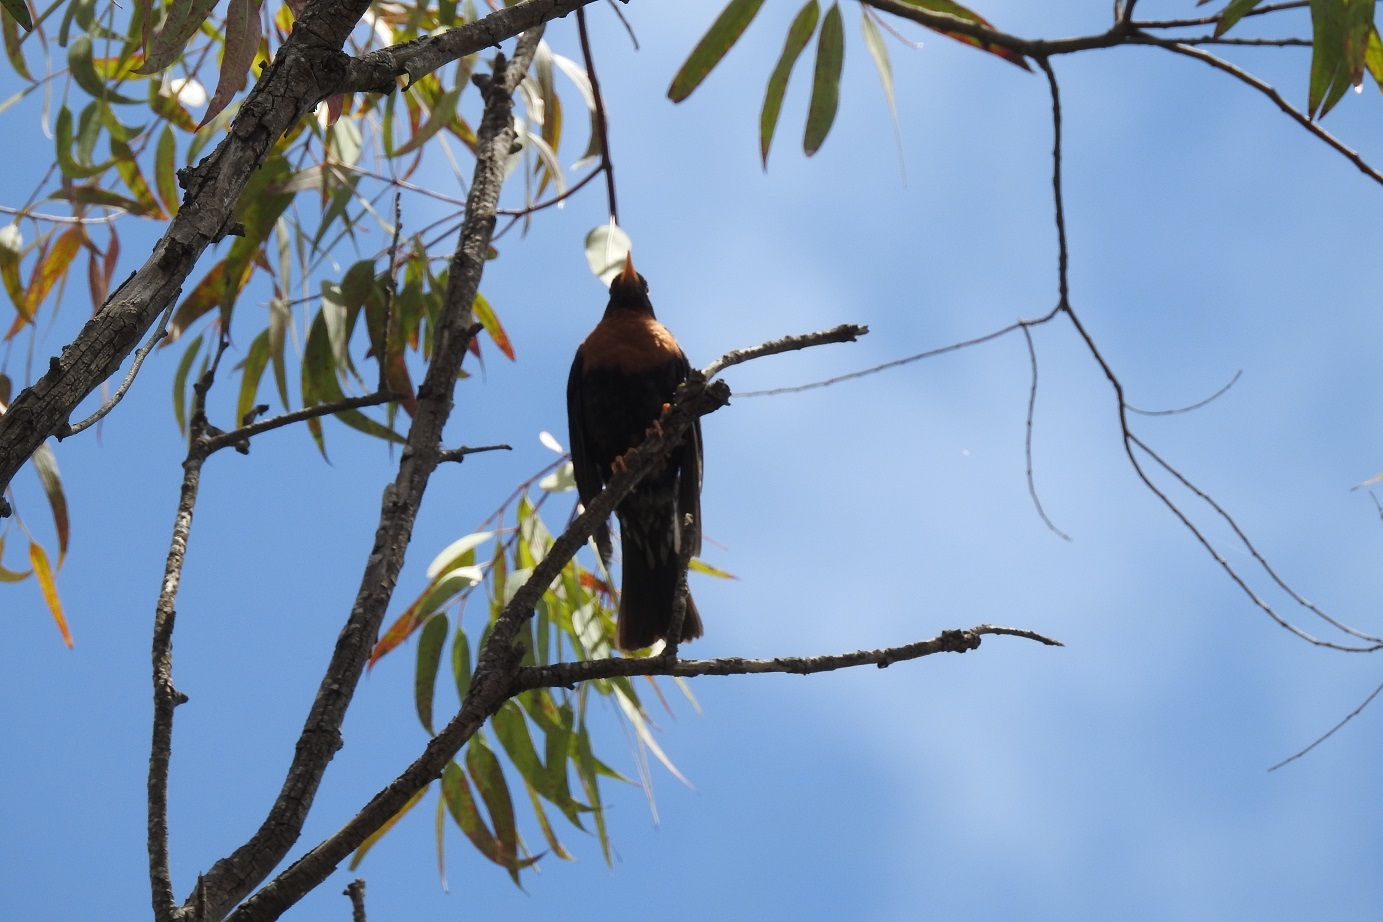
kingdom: Animalia
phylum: Chordata
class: Aves
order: Passeriformes
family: Turdidae
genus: Turdus
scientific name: Turdus rufitorques
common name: Rufous-collared thrush
